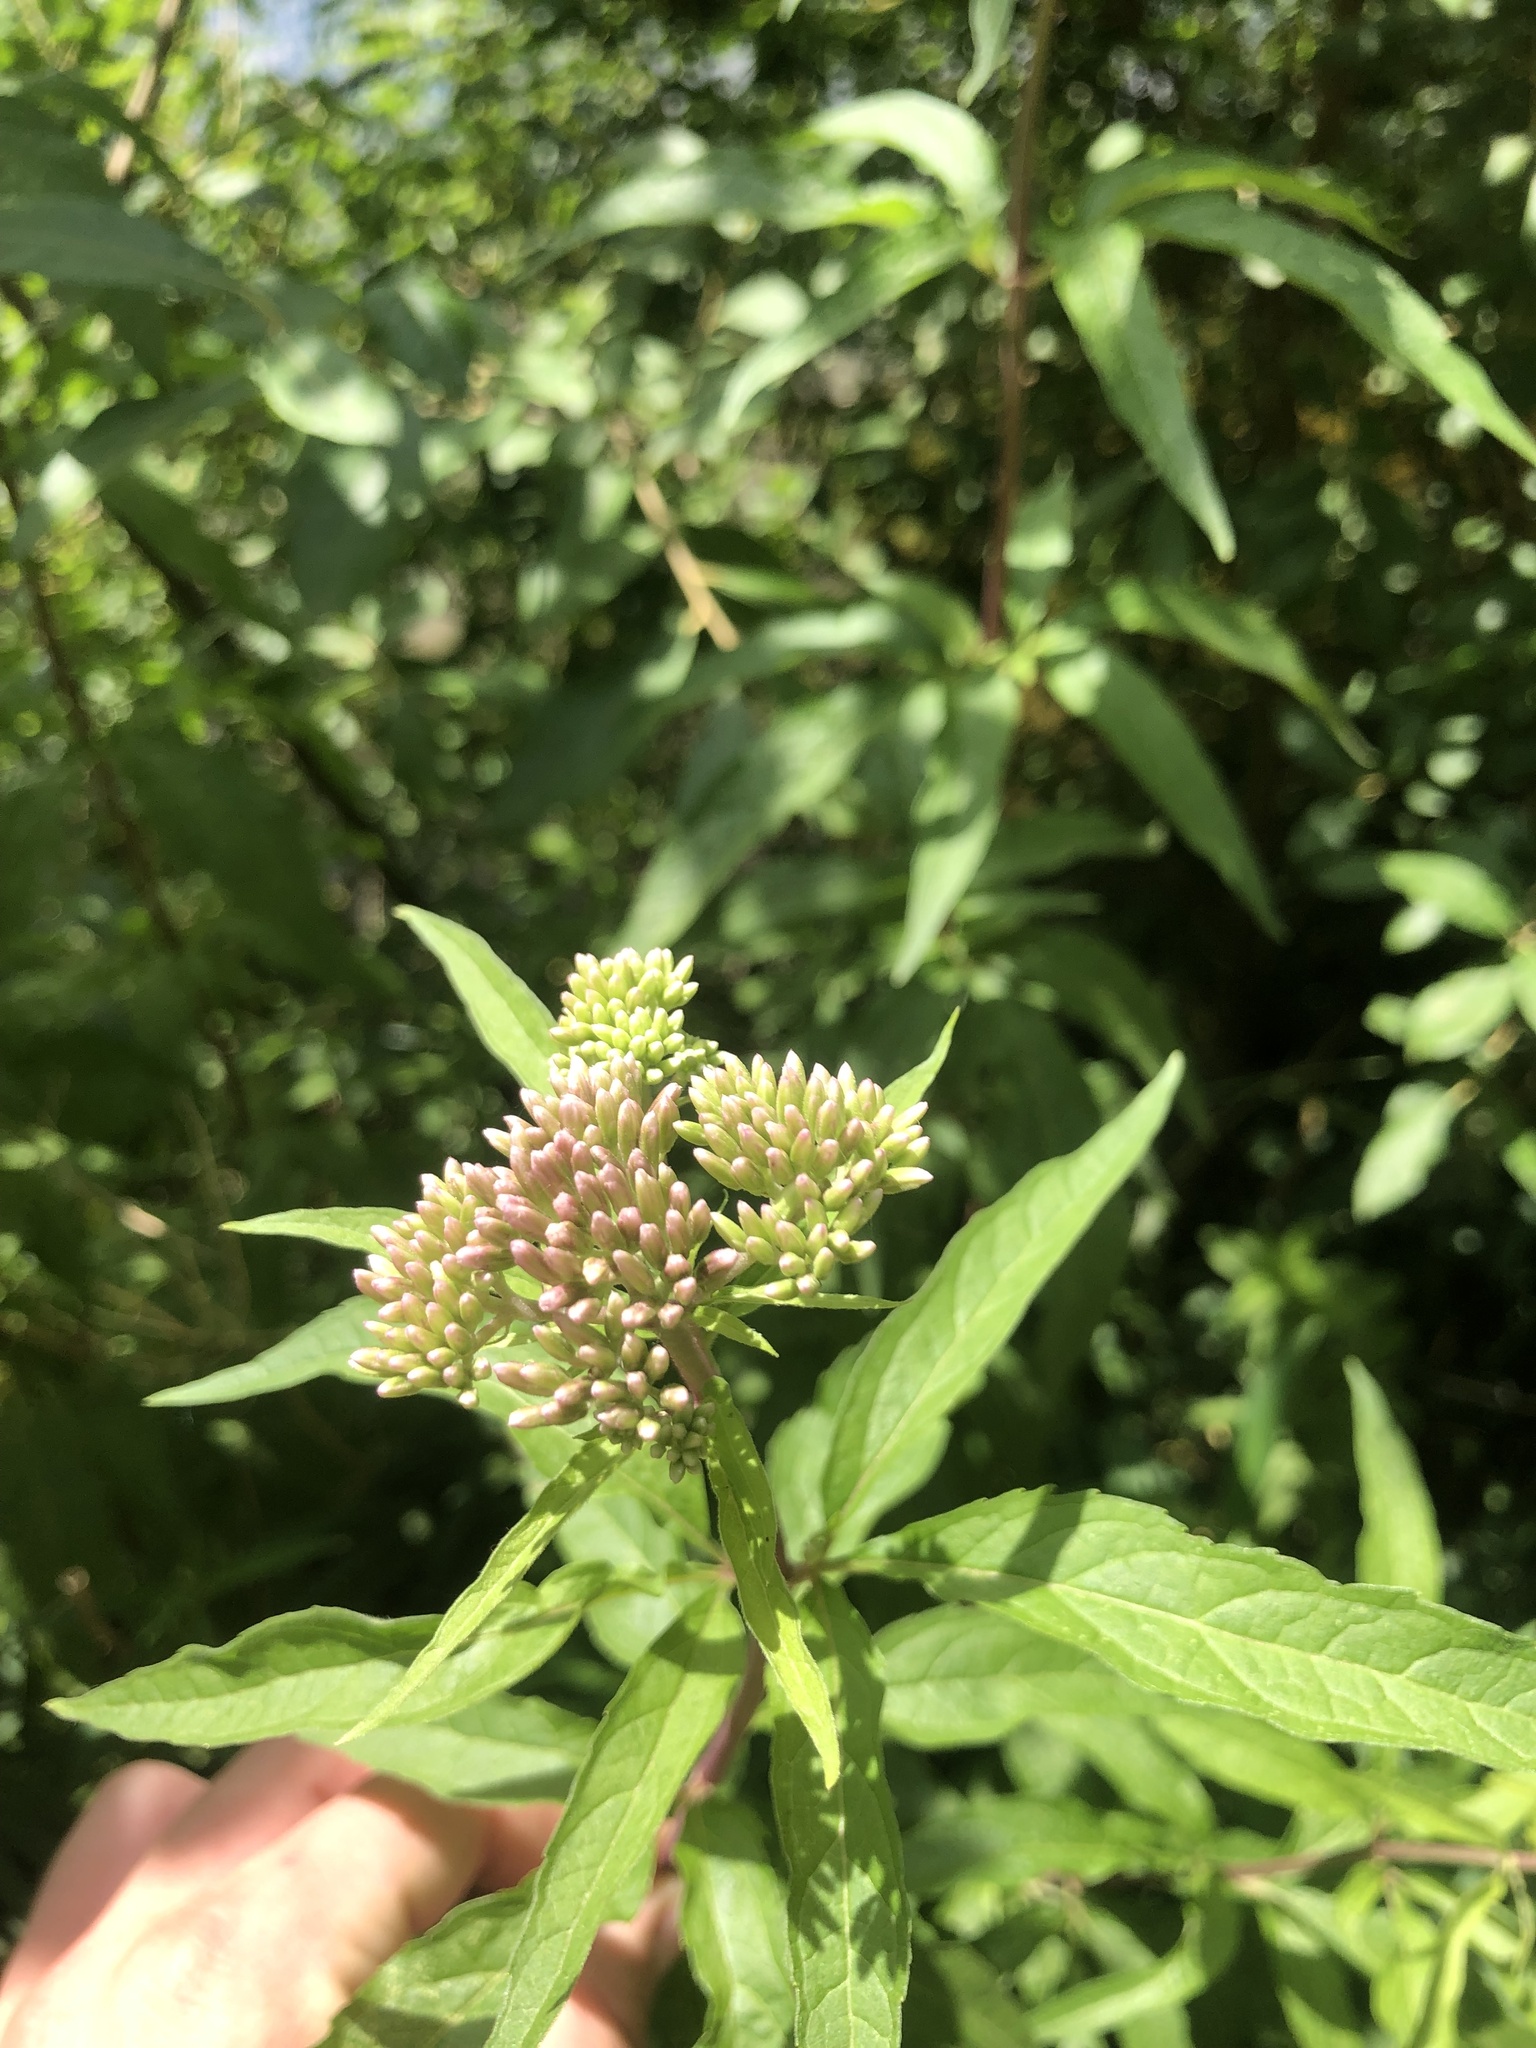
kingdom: Plantae
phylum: Tracheophyta
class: Magnoliopsida
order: Asterales
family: Asteraceae
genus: Eupatorium
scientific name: Eupatorium cannabinum
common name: Hemp-agrimony
